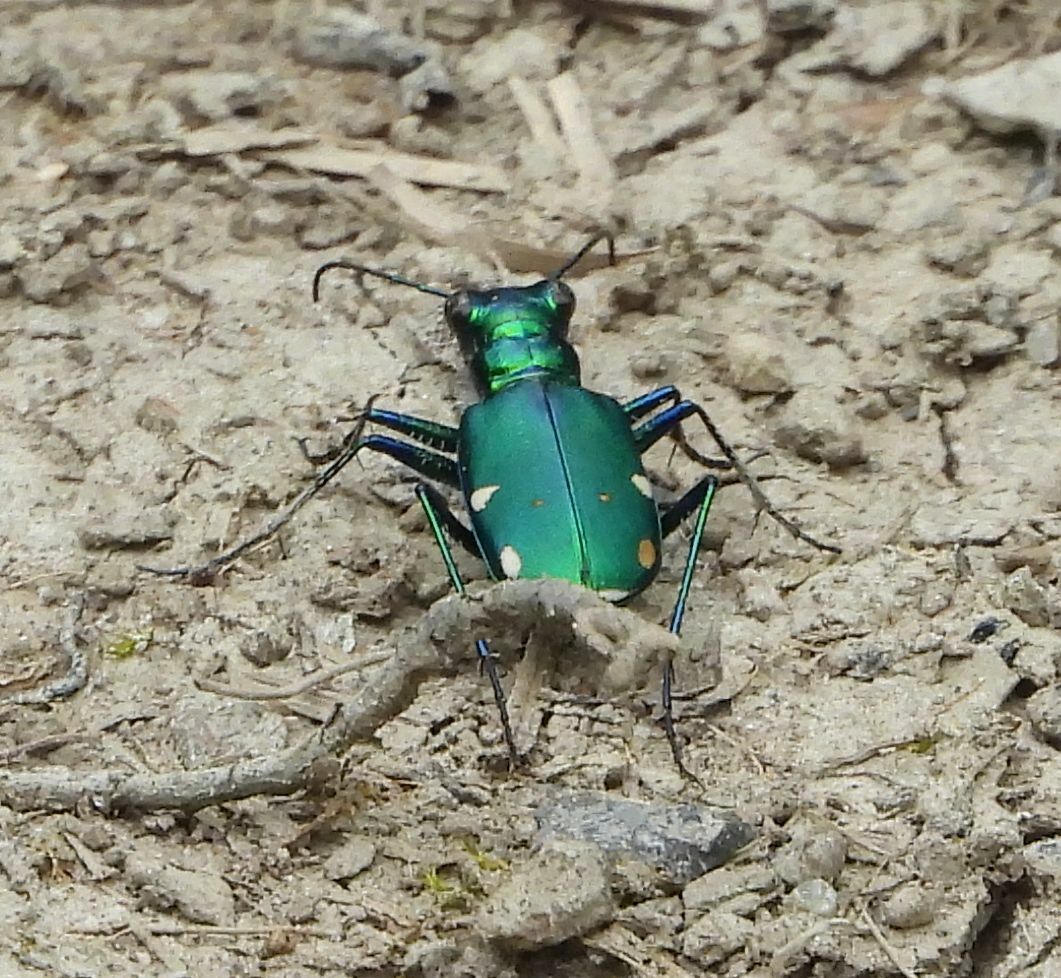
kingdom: Animalia
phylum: Arthropoda
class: Insecta
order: Coleoptera
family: Carabidae
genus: Cicindela
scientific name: Cicindela sexguttata
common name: Six-spotted tiger beetle
